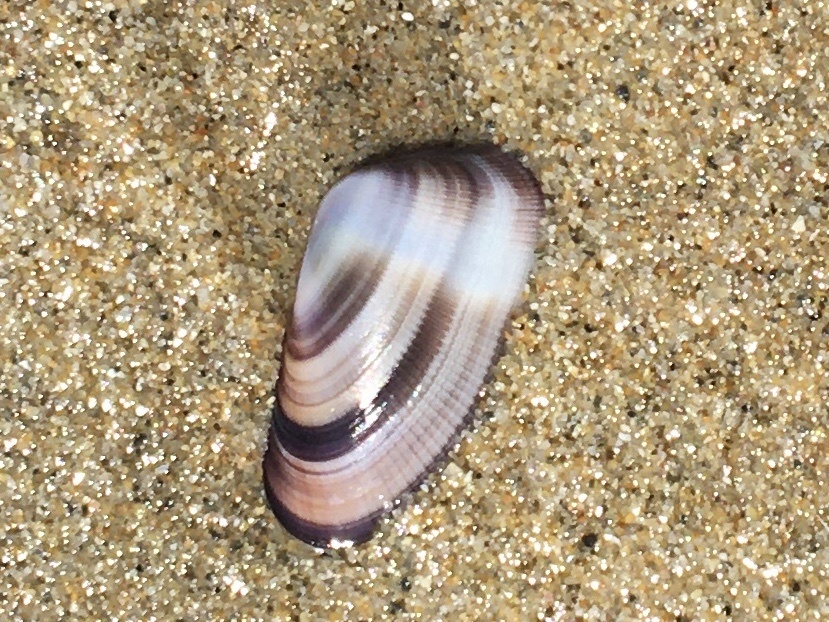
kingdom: Animalia
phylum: Mollusca
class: Bivalvia
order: Cardiida
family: Donacidae
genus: Donax
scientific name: Donax gouldii
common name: Gould beanclam
